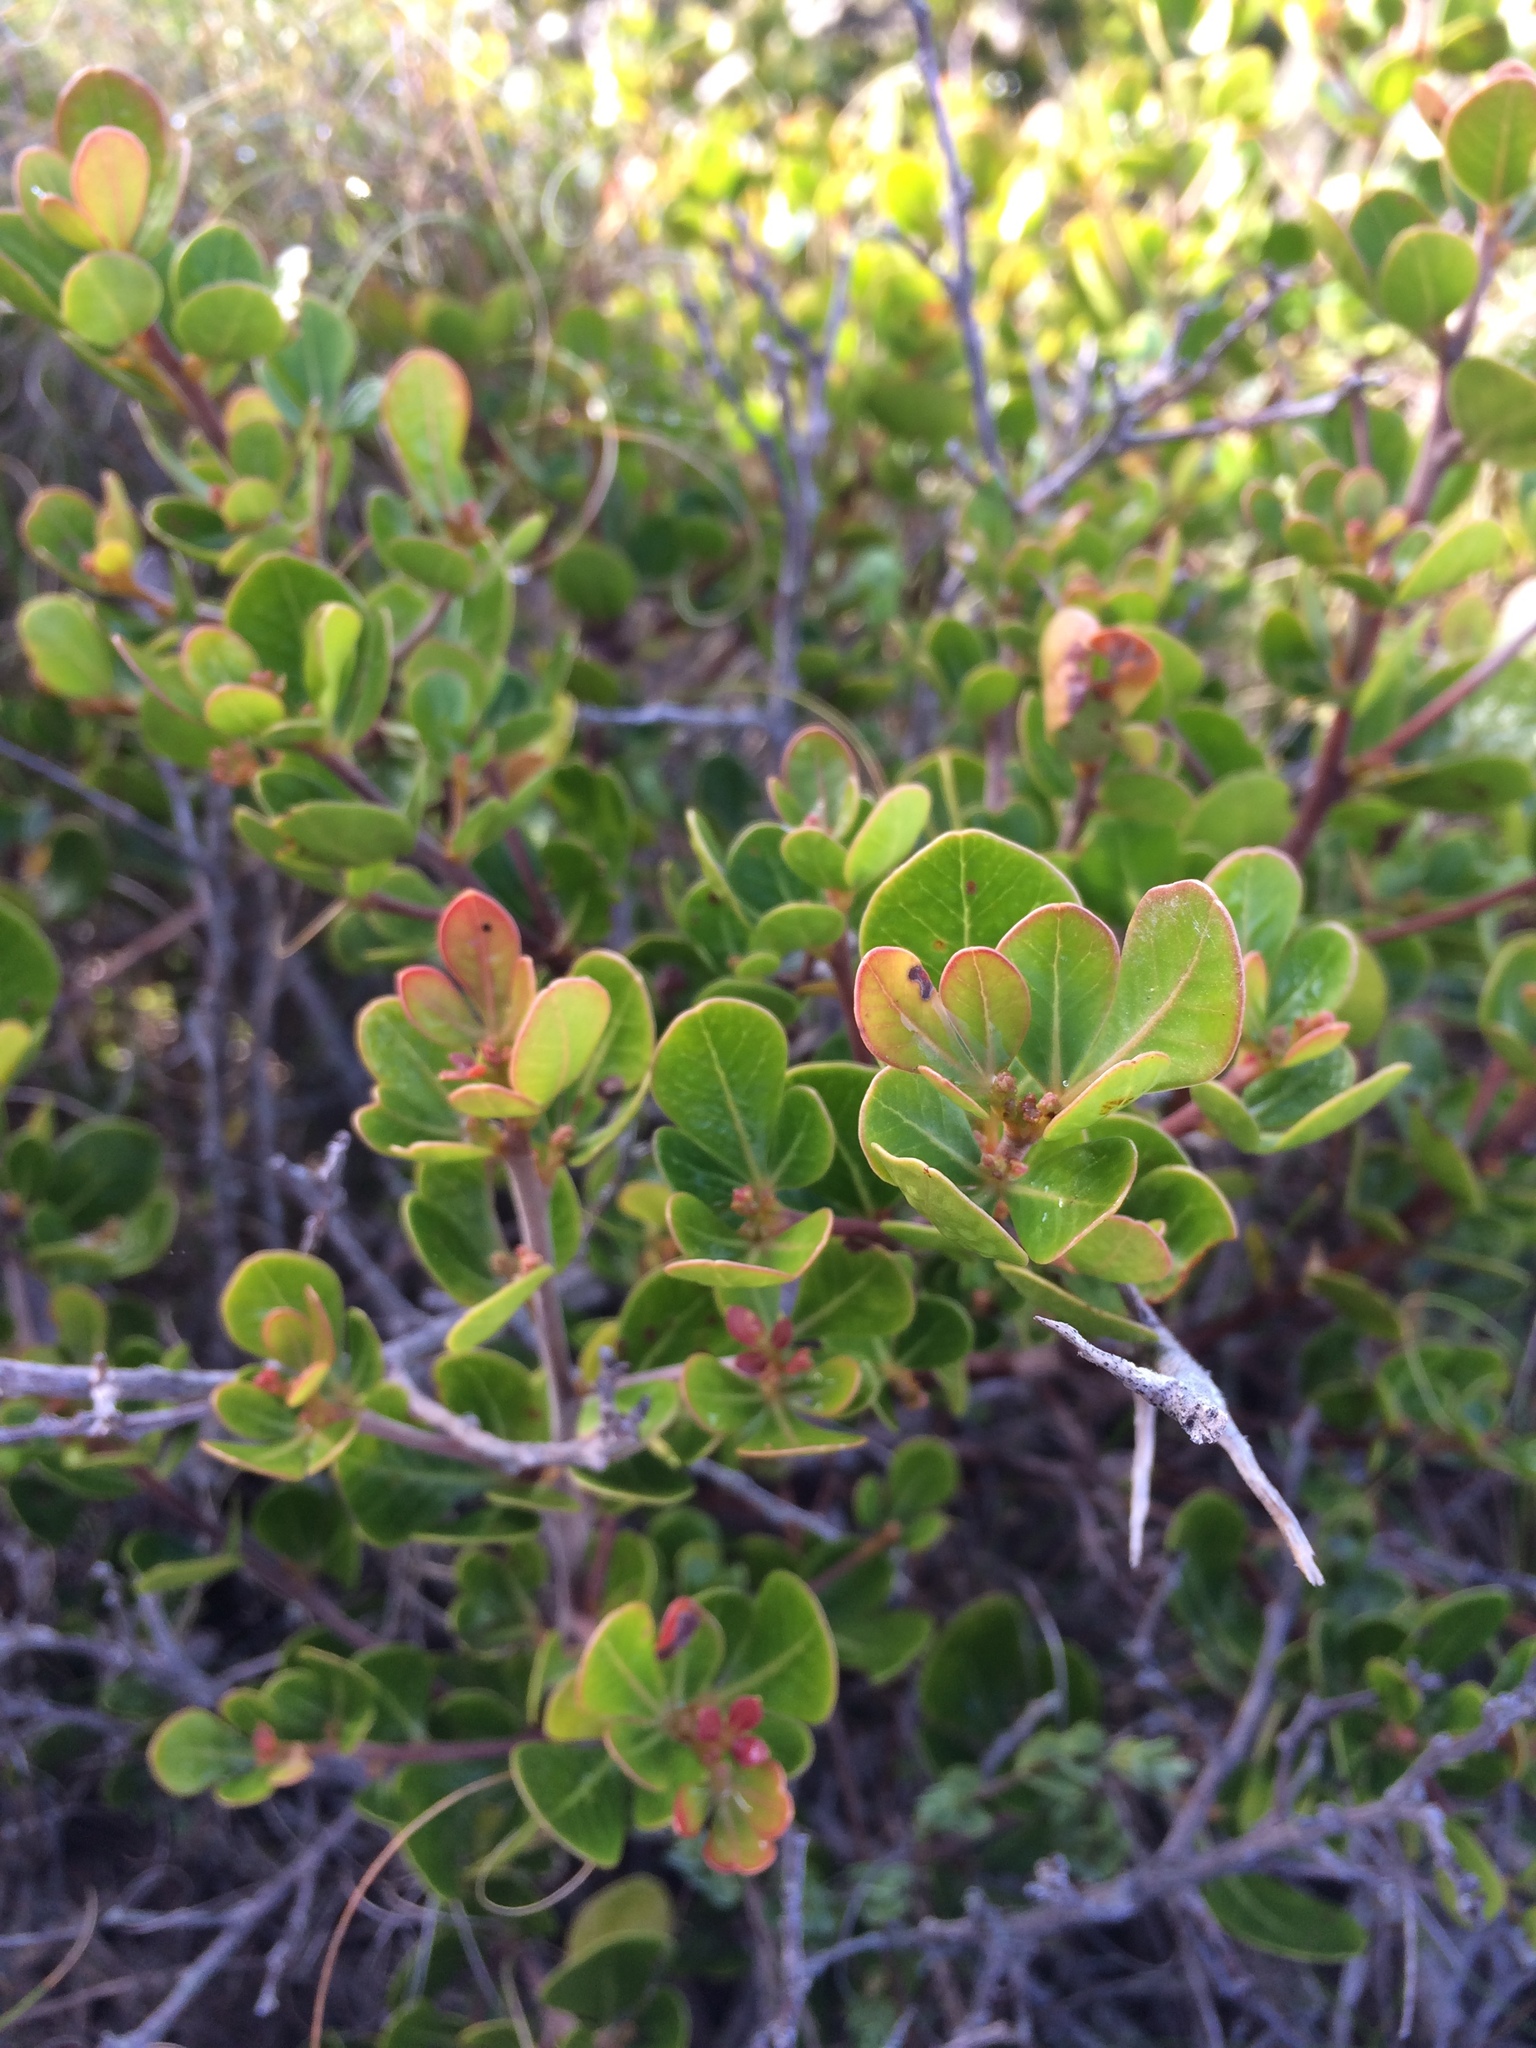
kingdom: Plantae
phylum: Tracheophyta
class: Magnoliopsida
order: Sapindales
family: Anacardiaceae
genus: Searsia
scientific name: Searsia lucida
